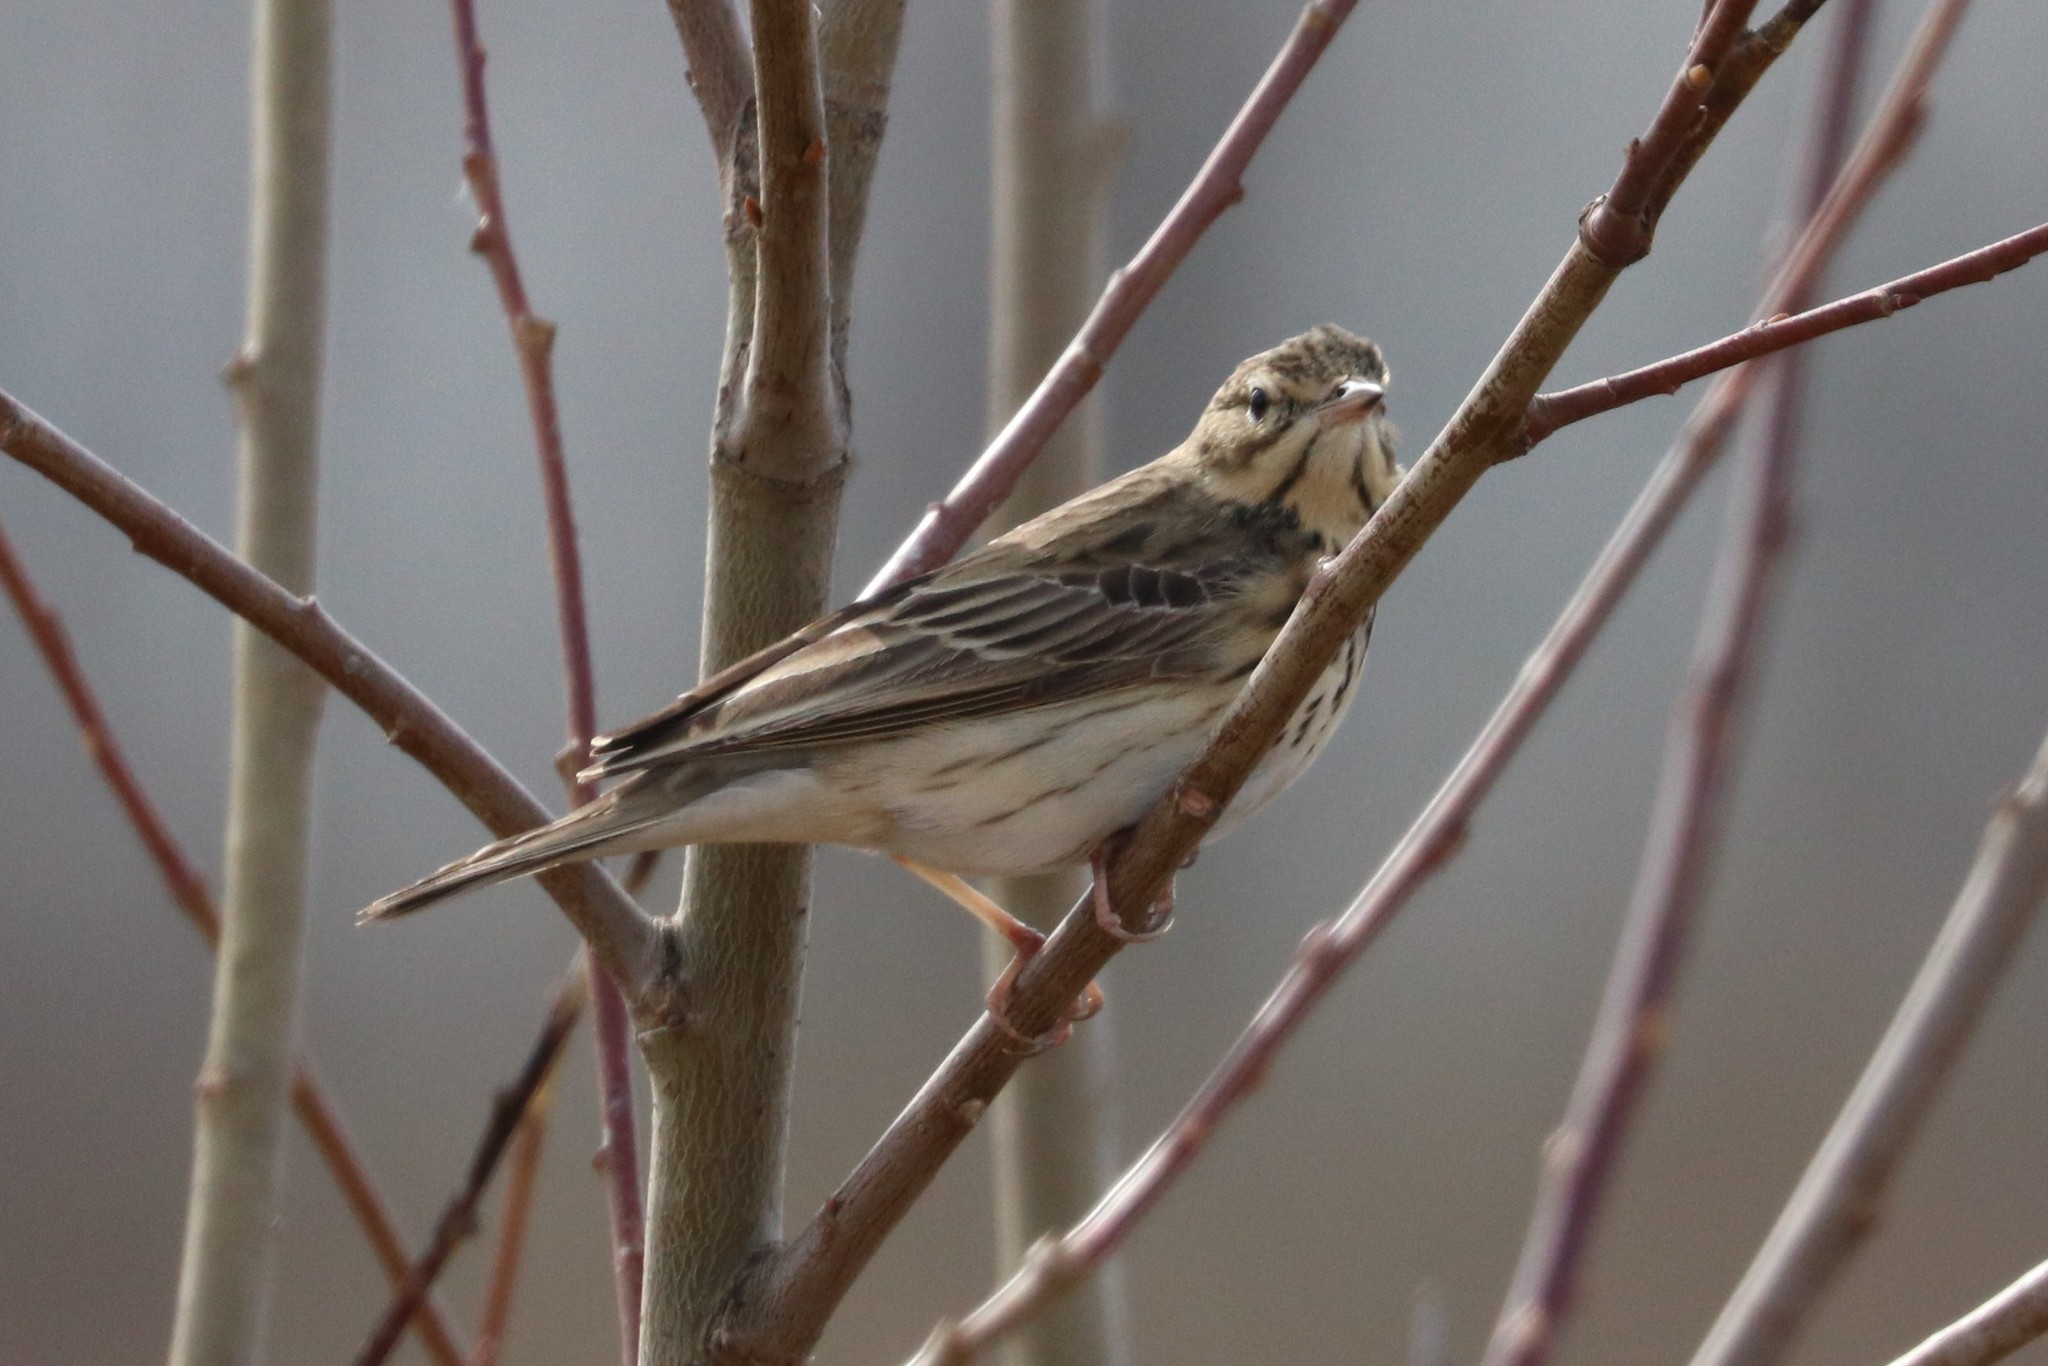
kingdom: Animalia
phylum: Chordata
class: Aves
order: Passeriformes
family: Motacillidae
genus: Anthus
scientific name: Anthus trivialis
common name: Tree pipit
